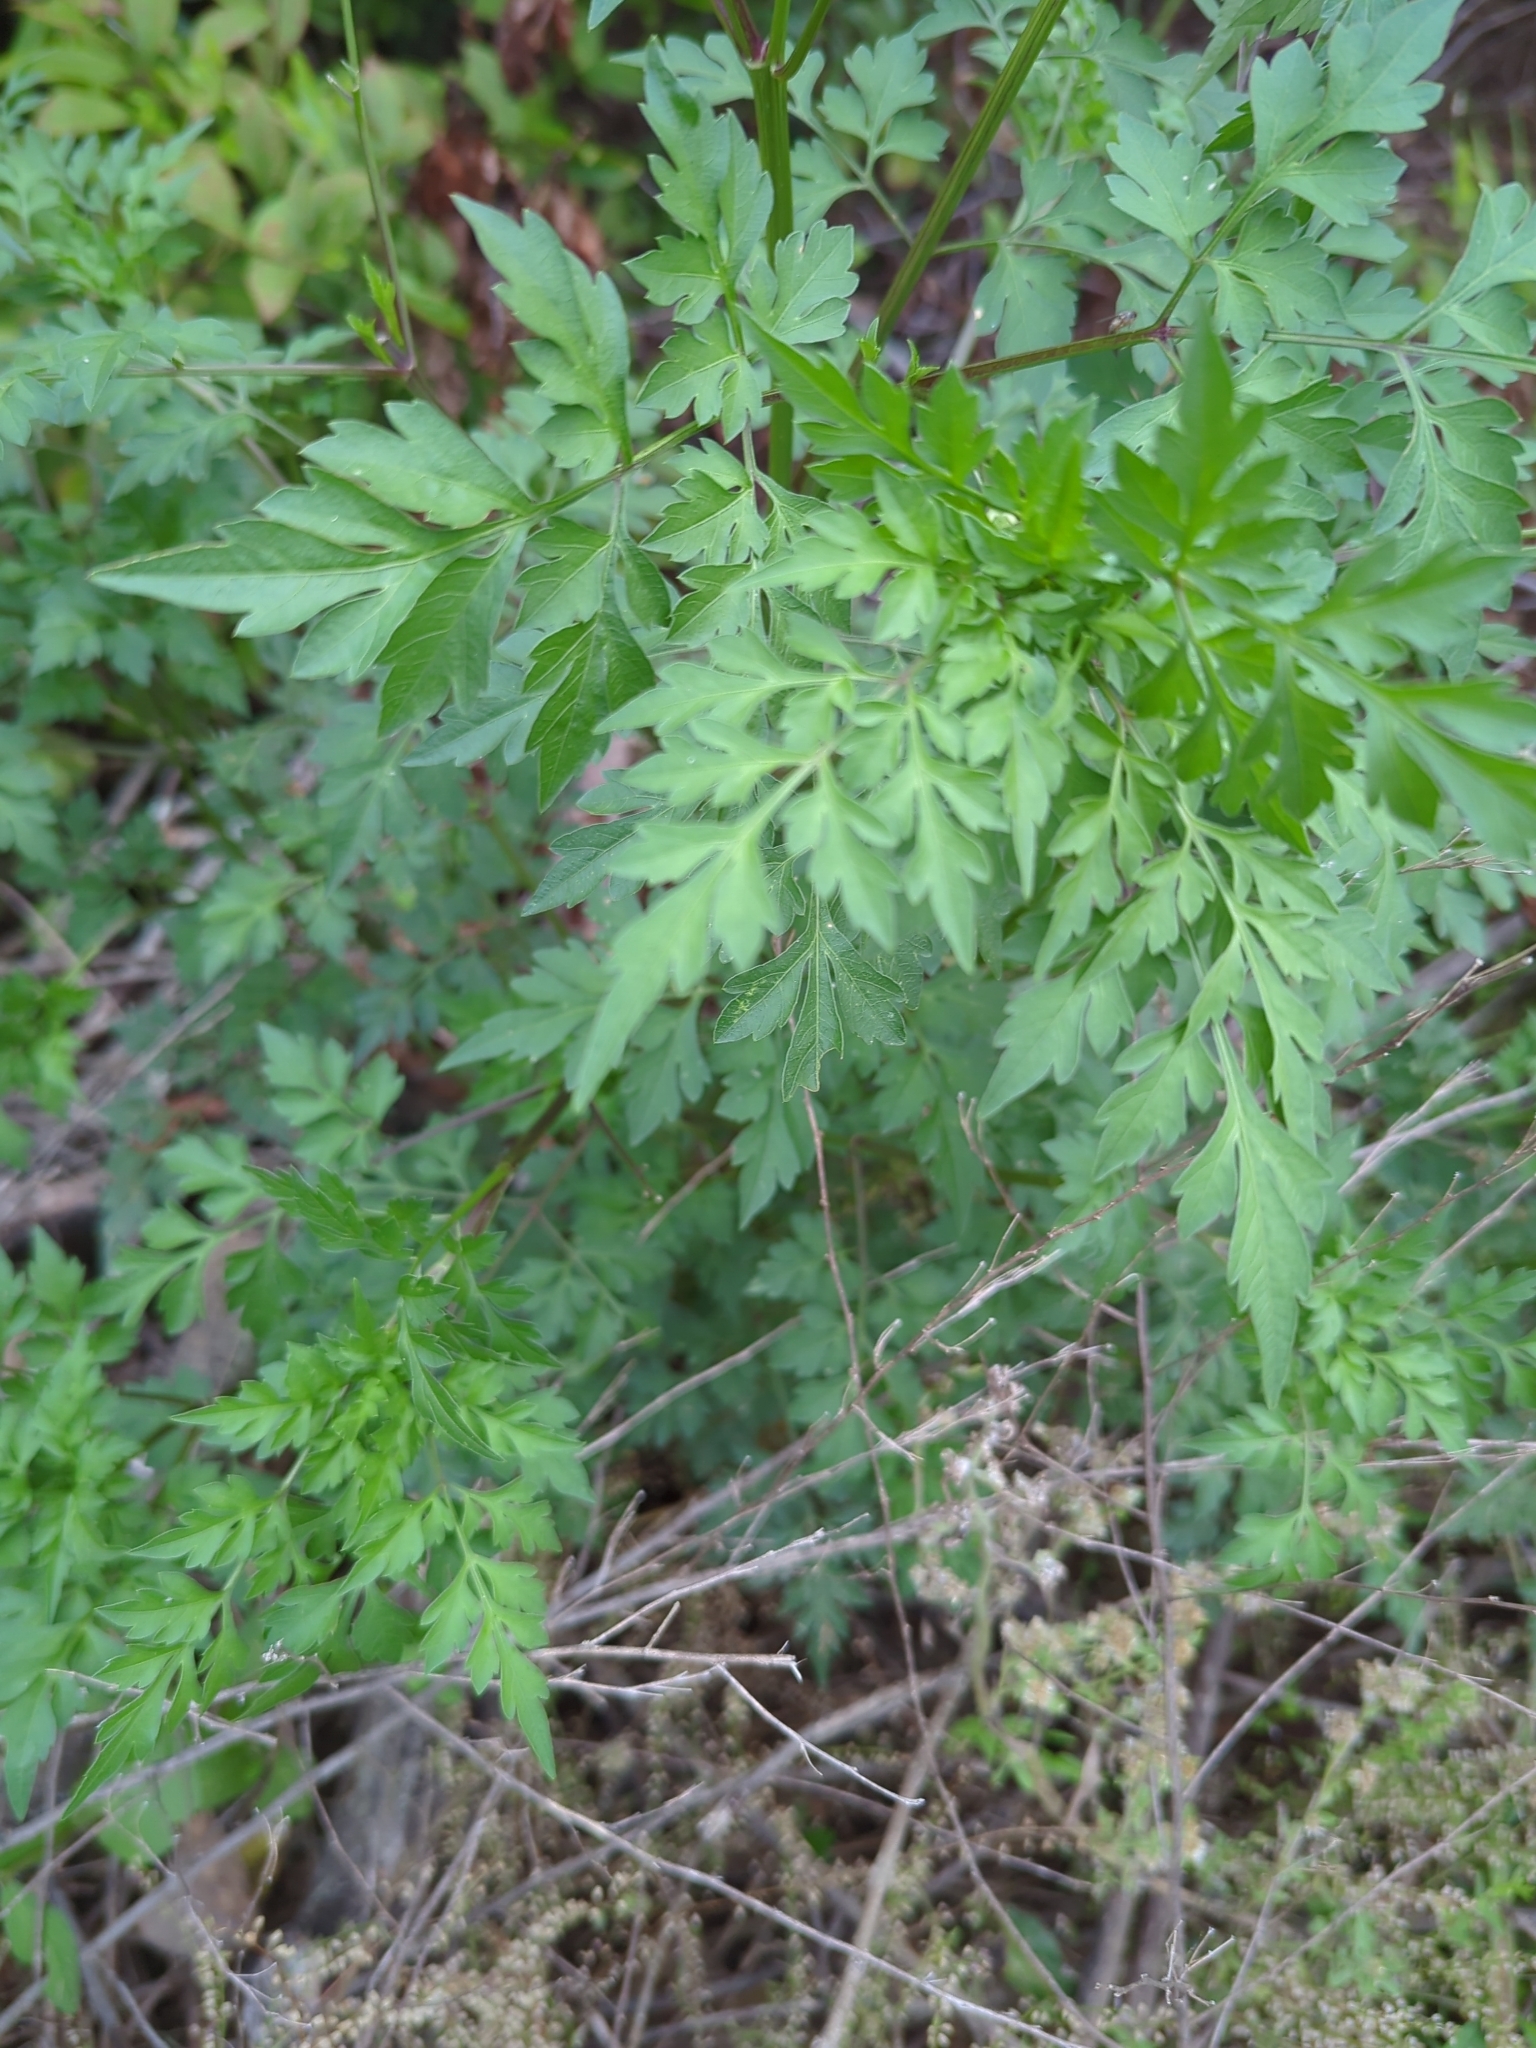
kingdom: Plantae
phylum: Tracheophyta
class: Magnoliopsida
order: Asterales
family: Asteraceae
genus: Bidens
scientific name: Bidens bipinnata
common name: Spanish-needles
